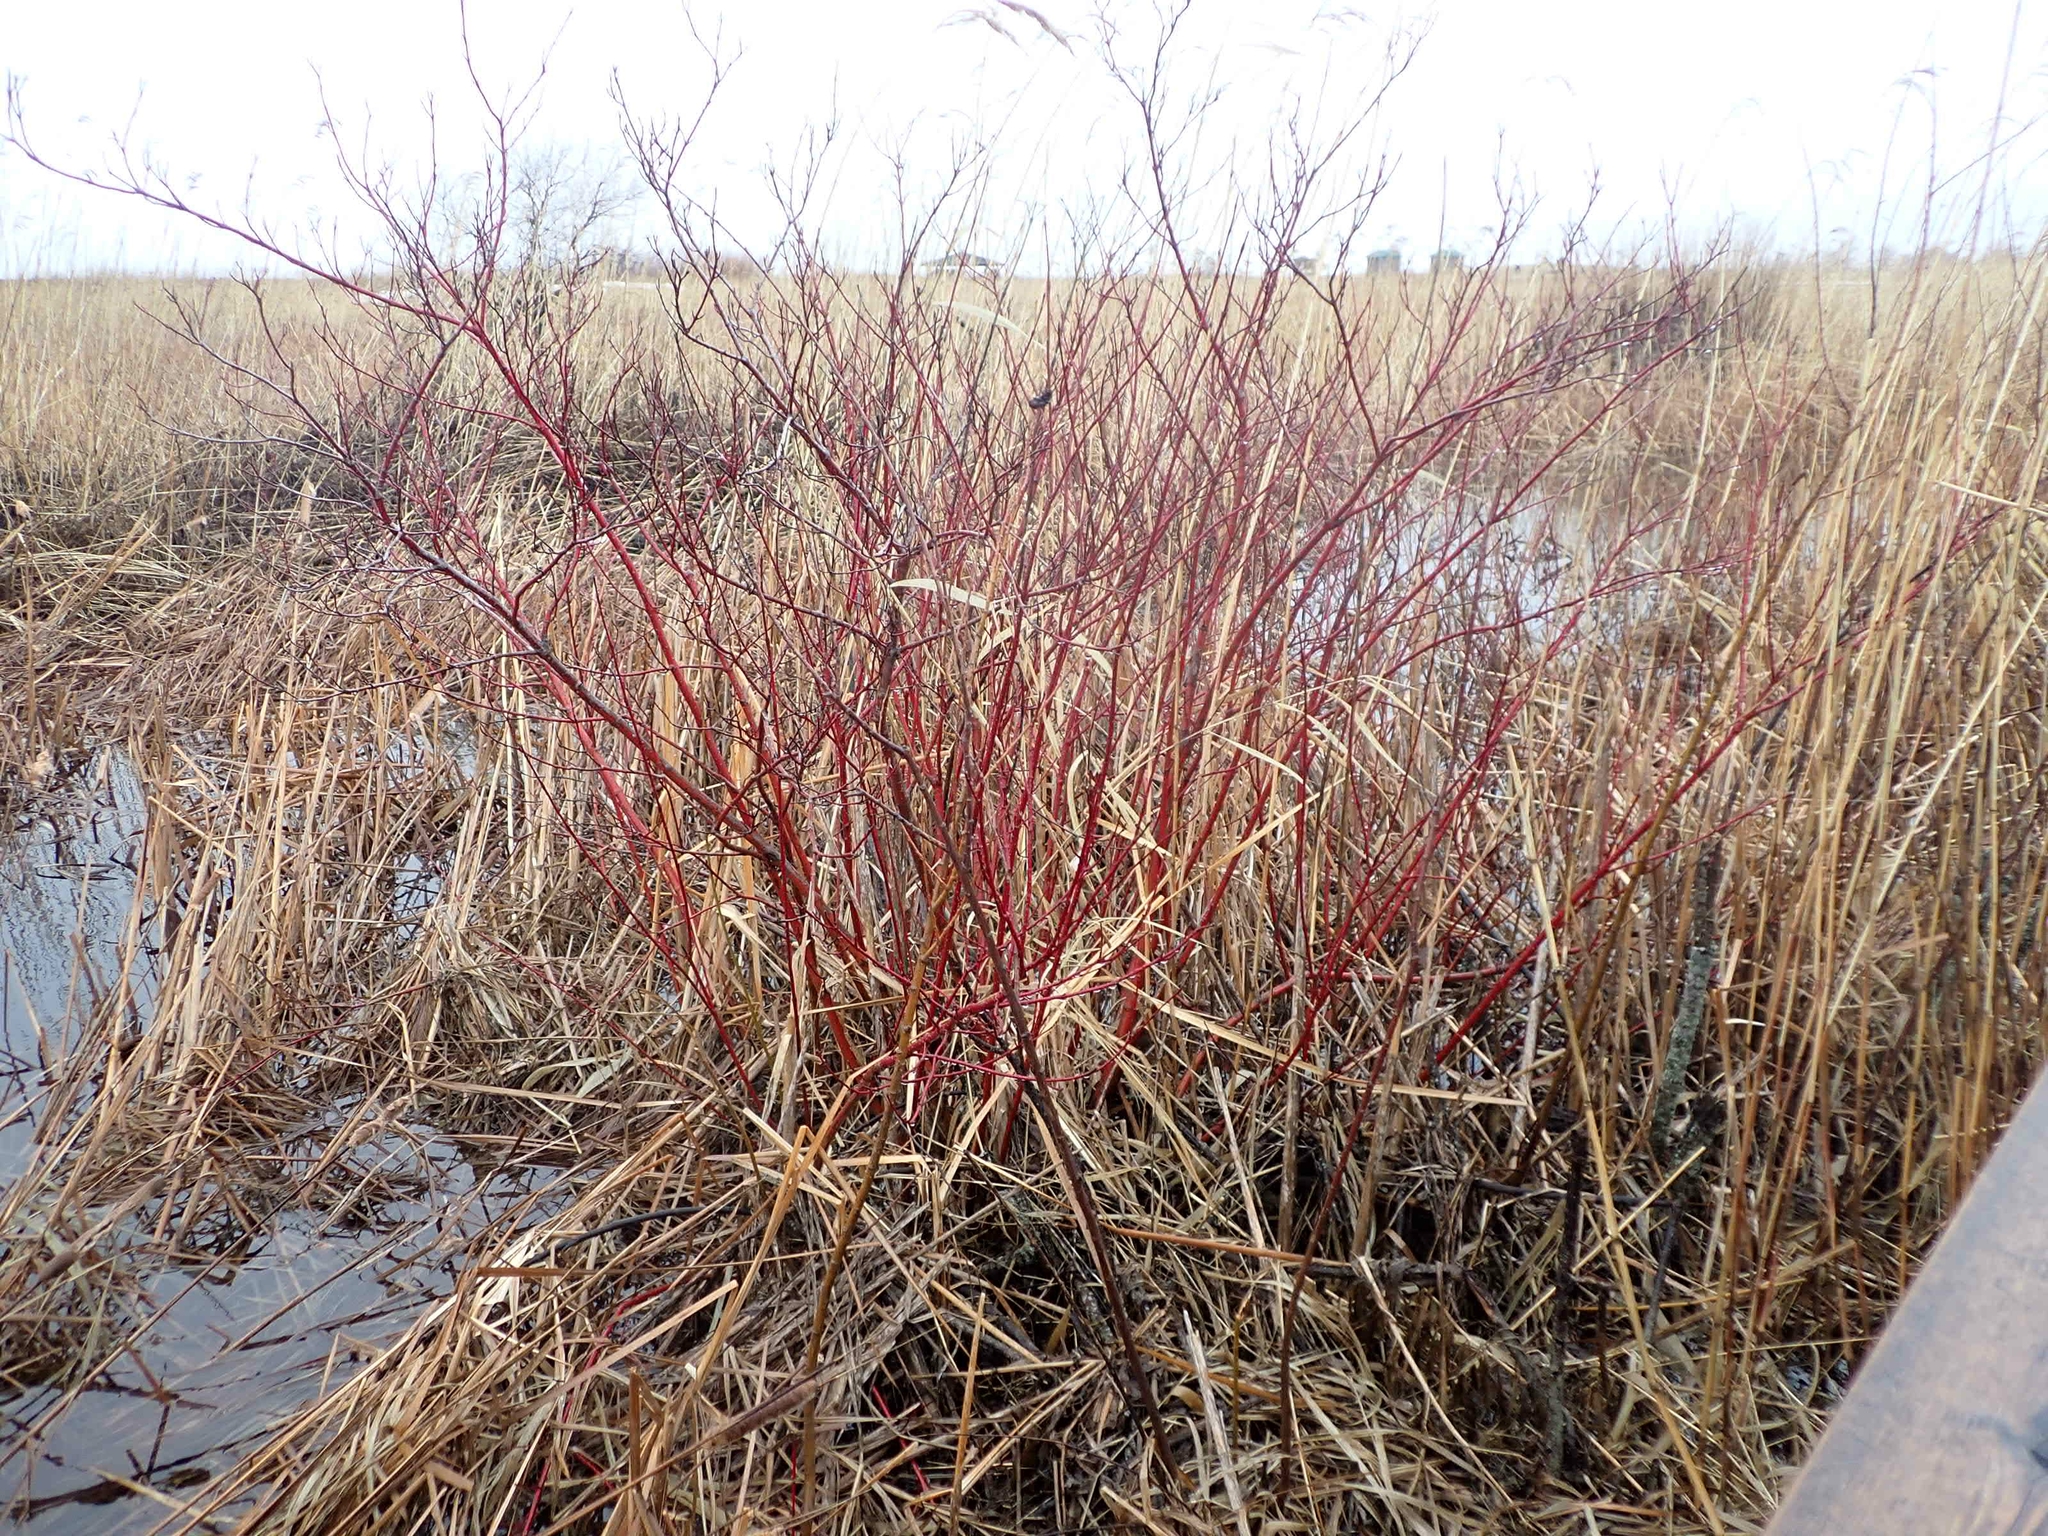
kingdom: Plantae
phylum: Tracheophyta
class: Magnoliopsida
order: Cornales
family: Cornaceae
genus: Cornus
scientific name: Cornus sericea
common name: Red-osier dogwood
